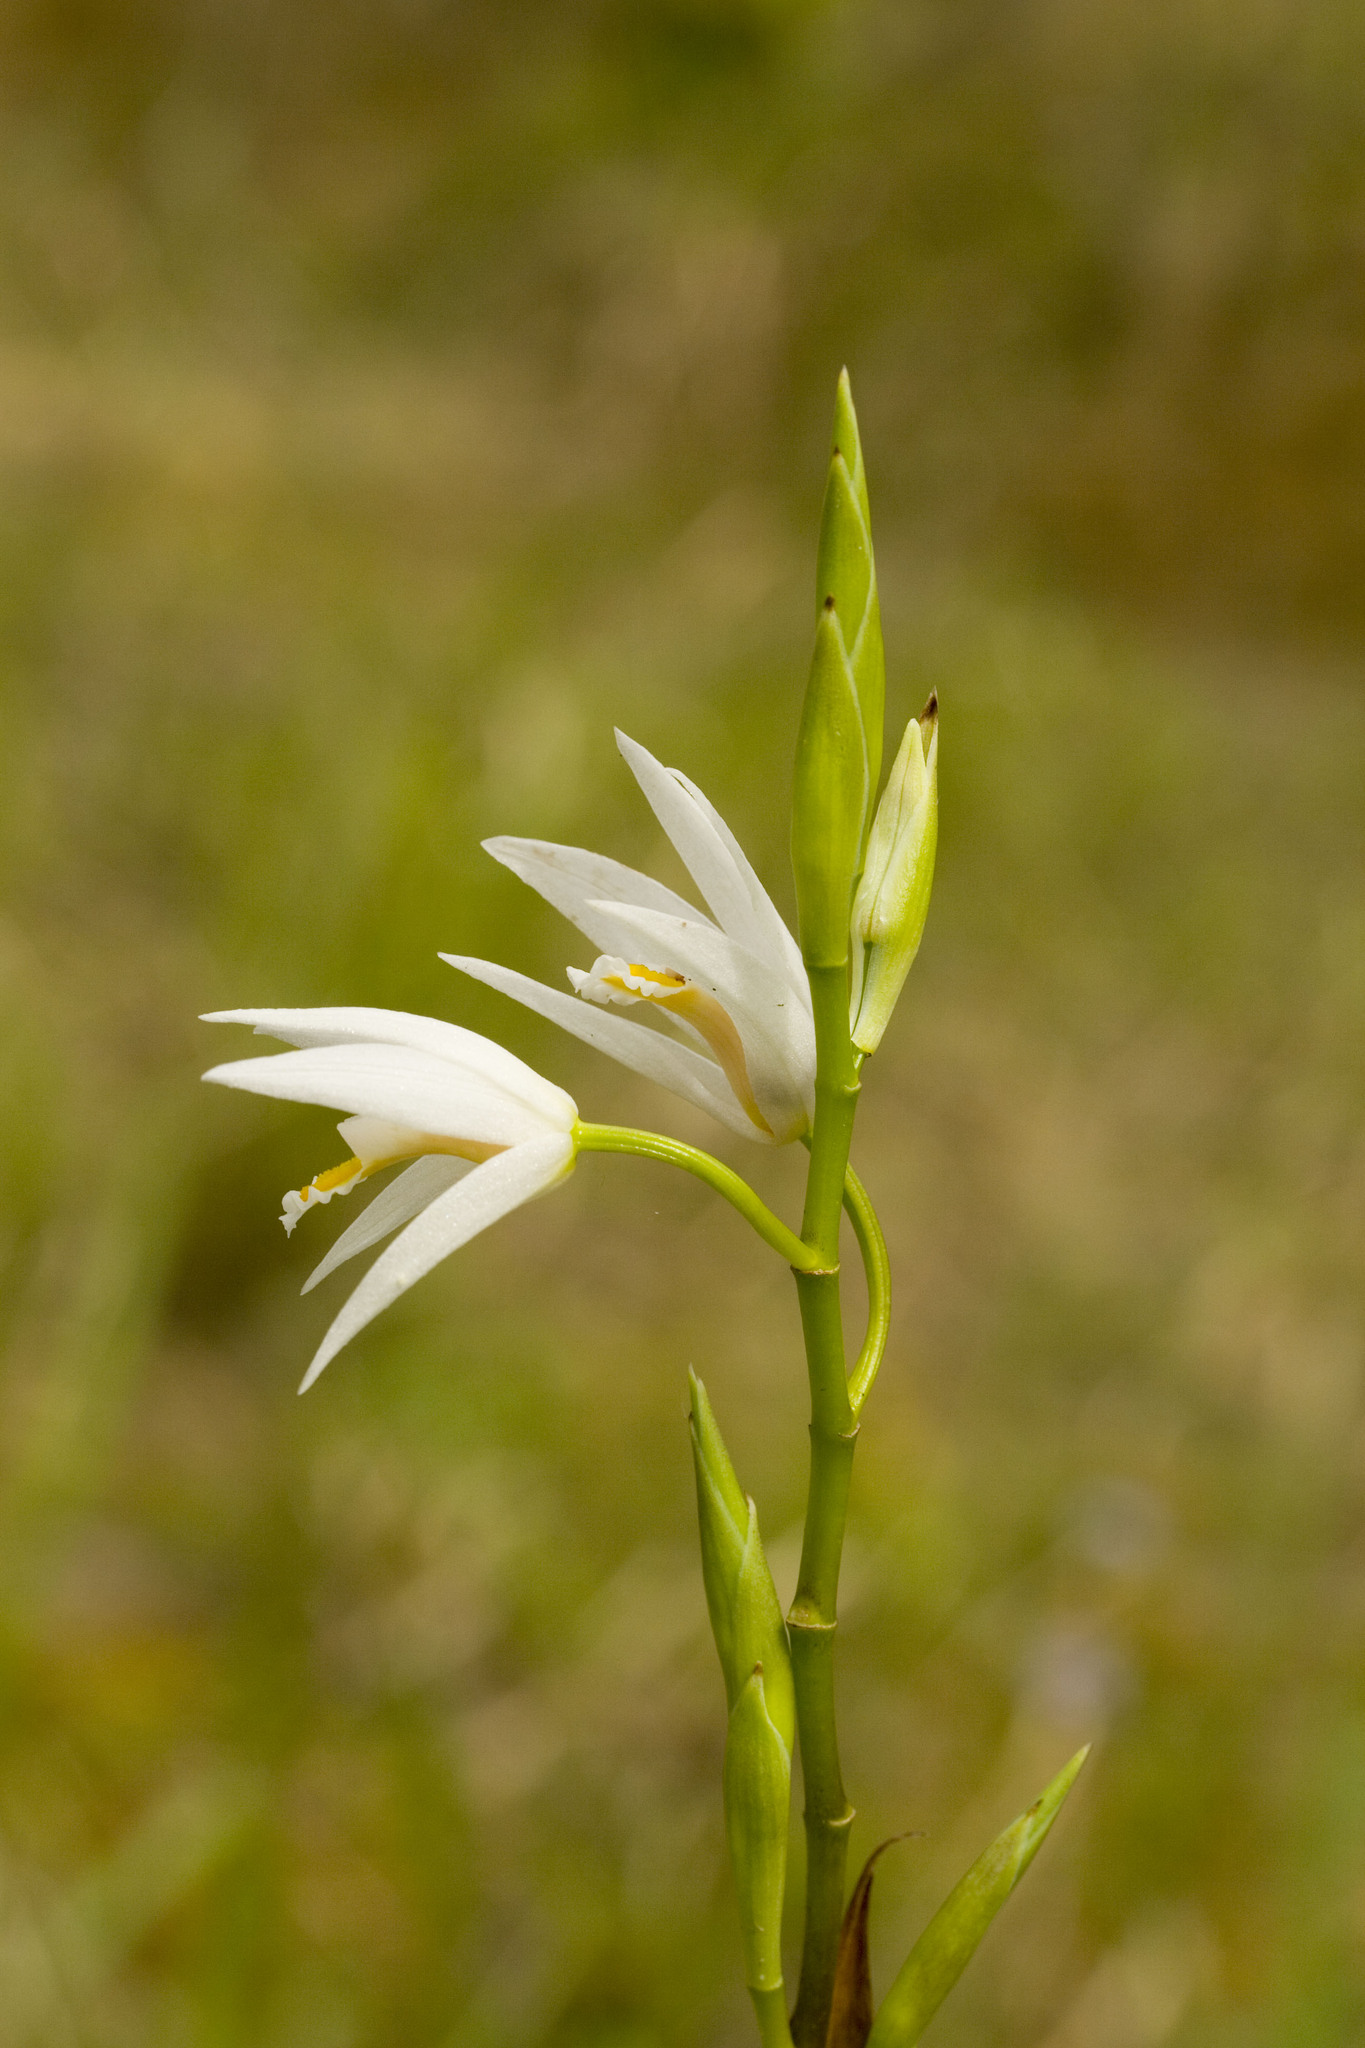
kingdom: Plantae
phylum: Tracheophyta
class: Liliopsida
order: Asparagales
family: Orchidaceae
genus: Bletilla
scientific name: Bletilla formosana
